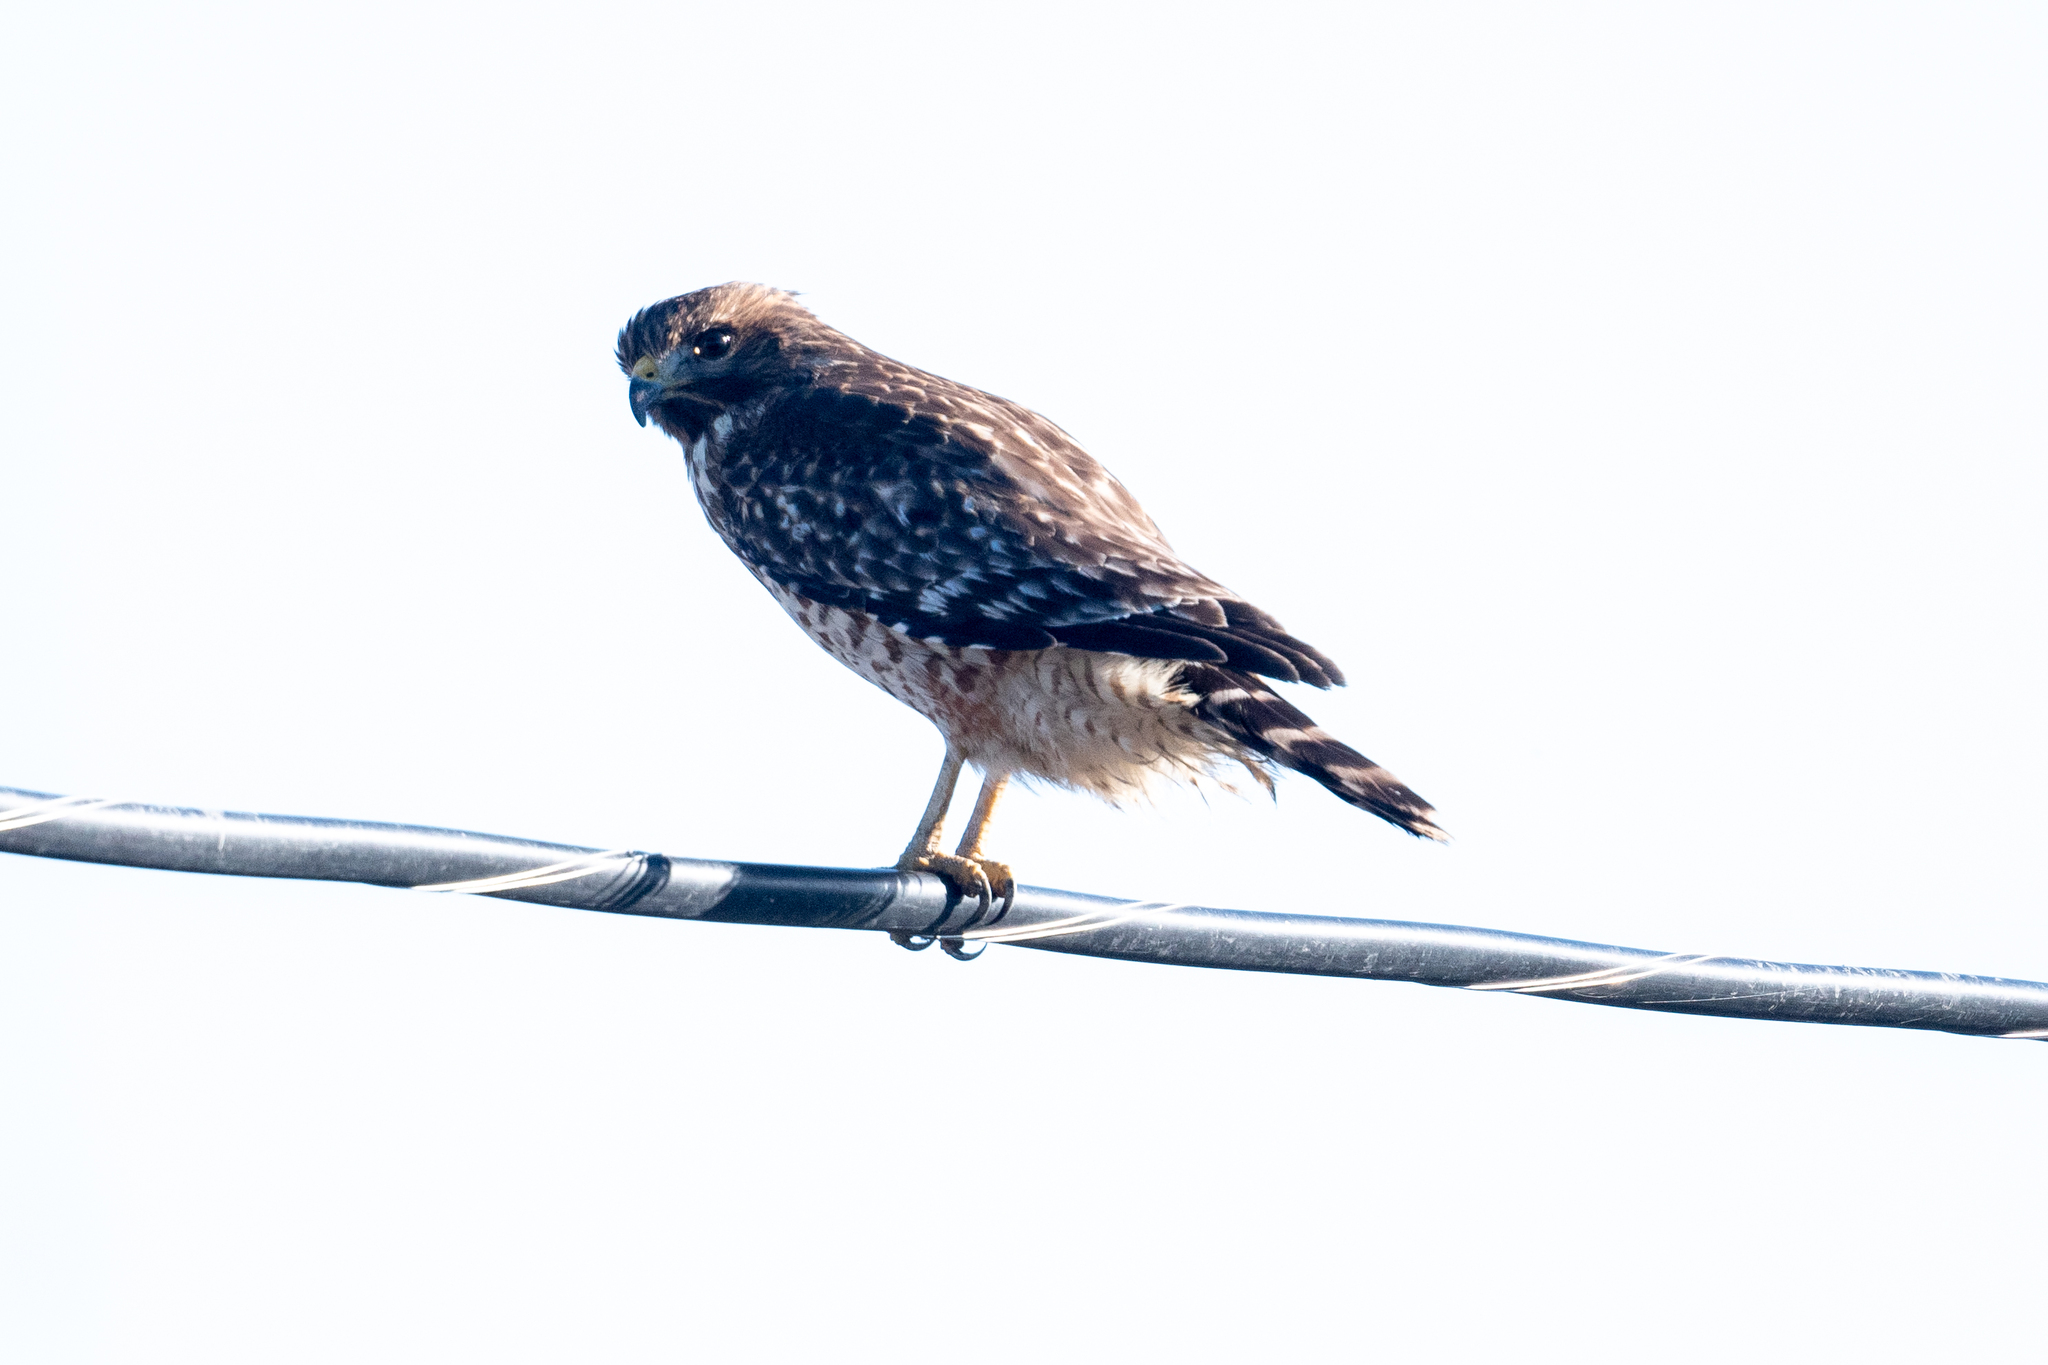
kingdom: Animalia
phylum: Chordata
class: Aves
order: Accipitriformes
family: Accipitridae
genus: Buteo
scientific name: Buteo lineatus
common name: Red-shouldered hawk
